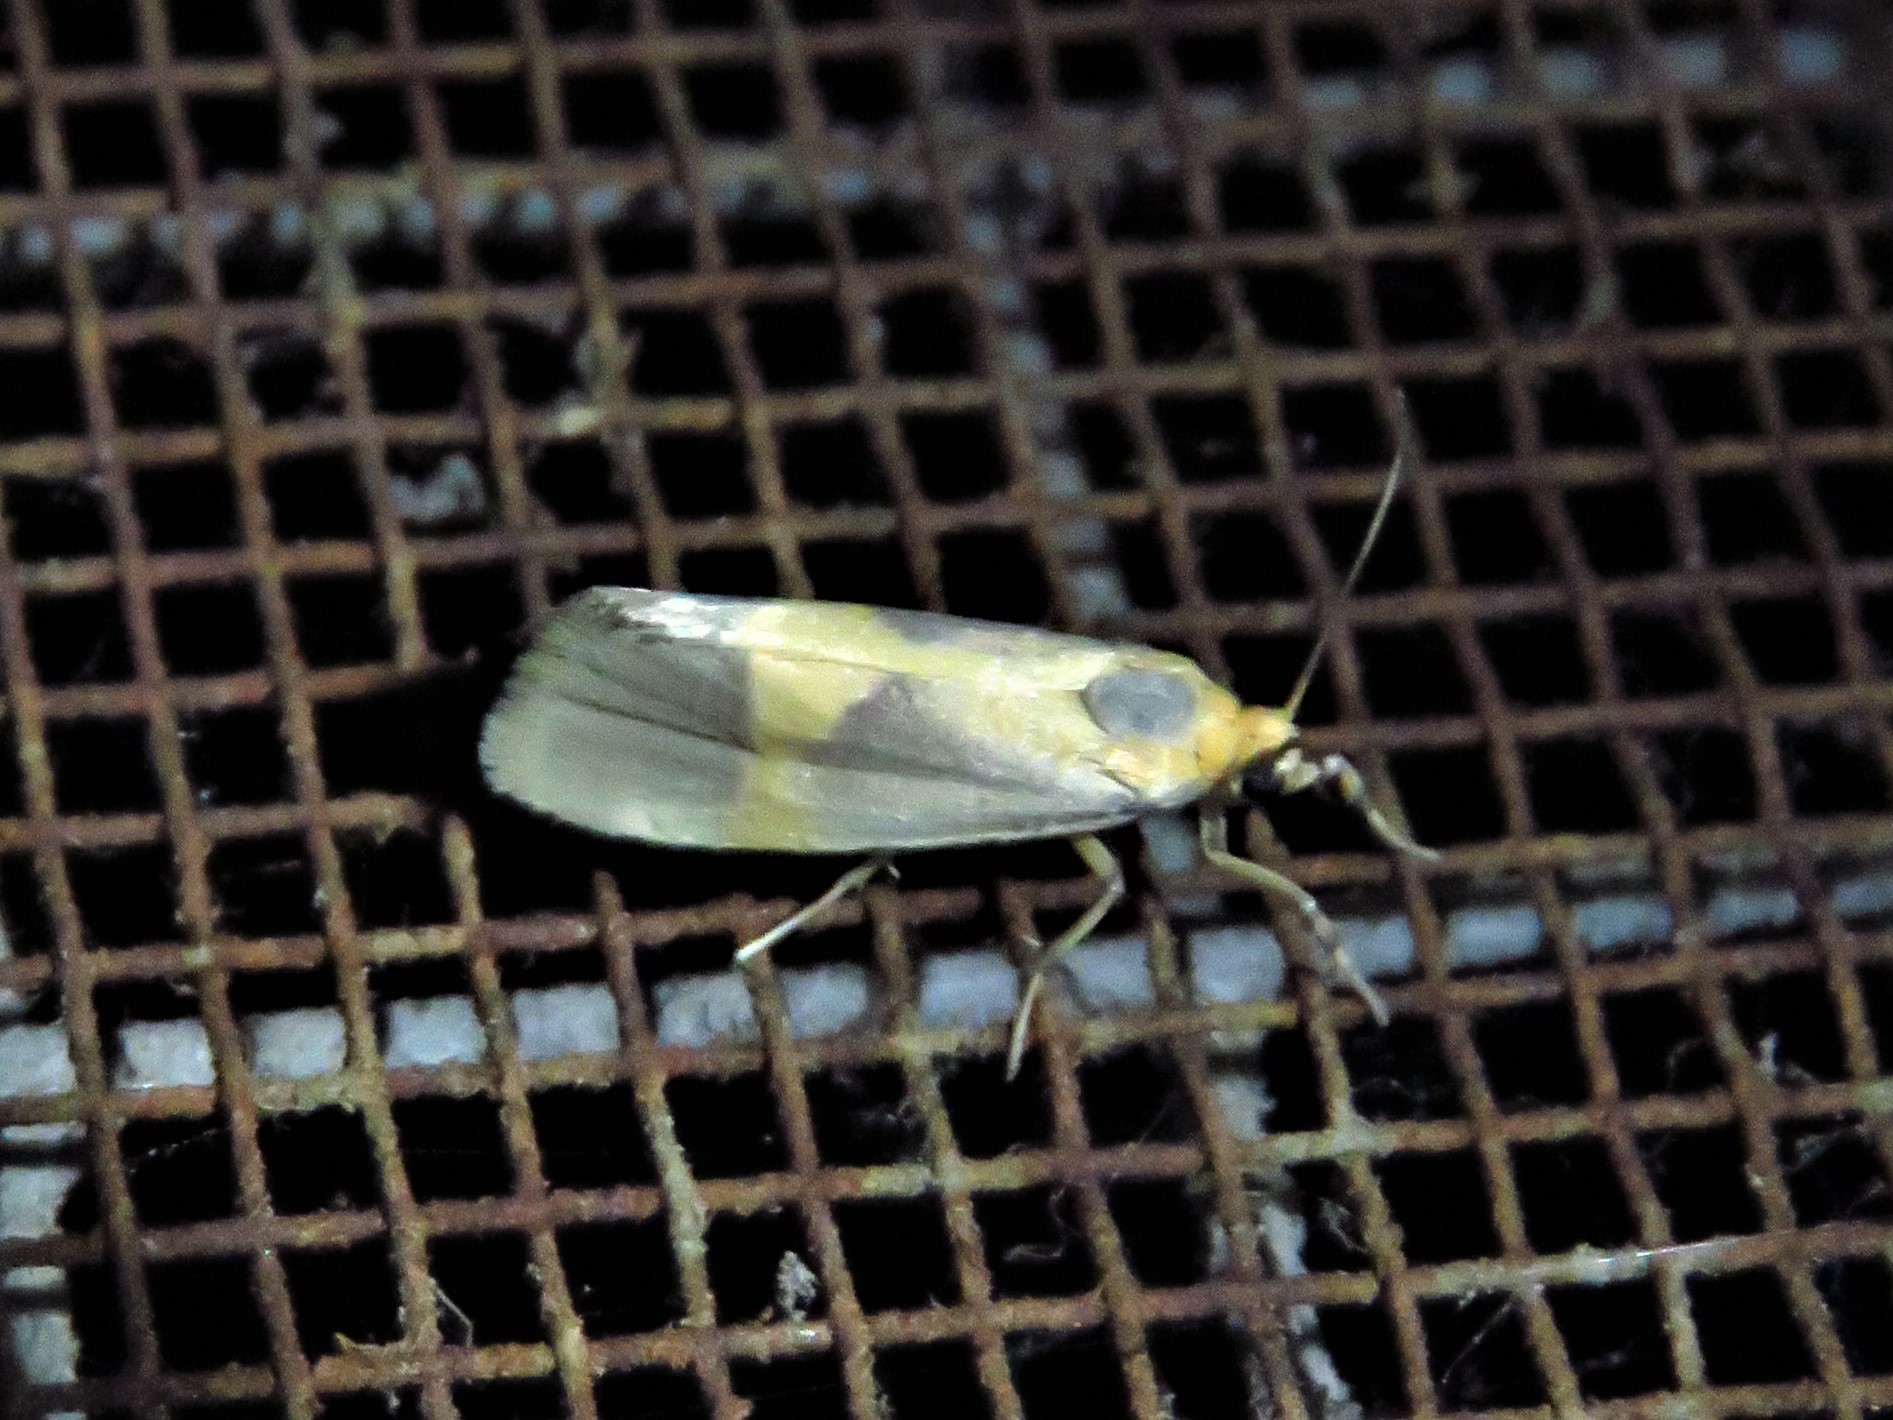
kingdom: Animalia
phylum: Arthropoda
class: Insecta
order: Lepidoptera
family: Erebidae
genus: Cisthene
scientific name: Cisthene unifascia
